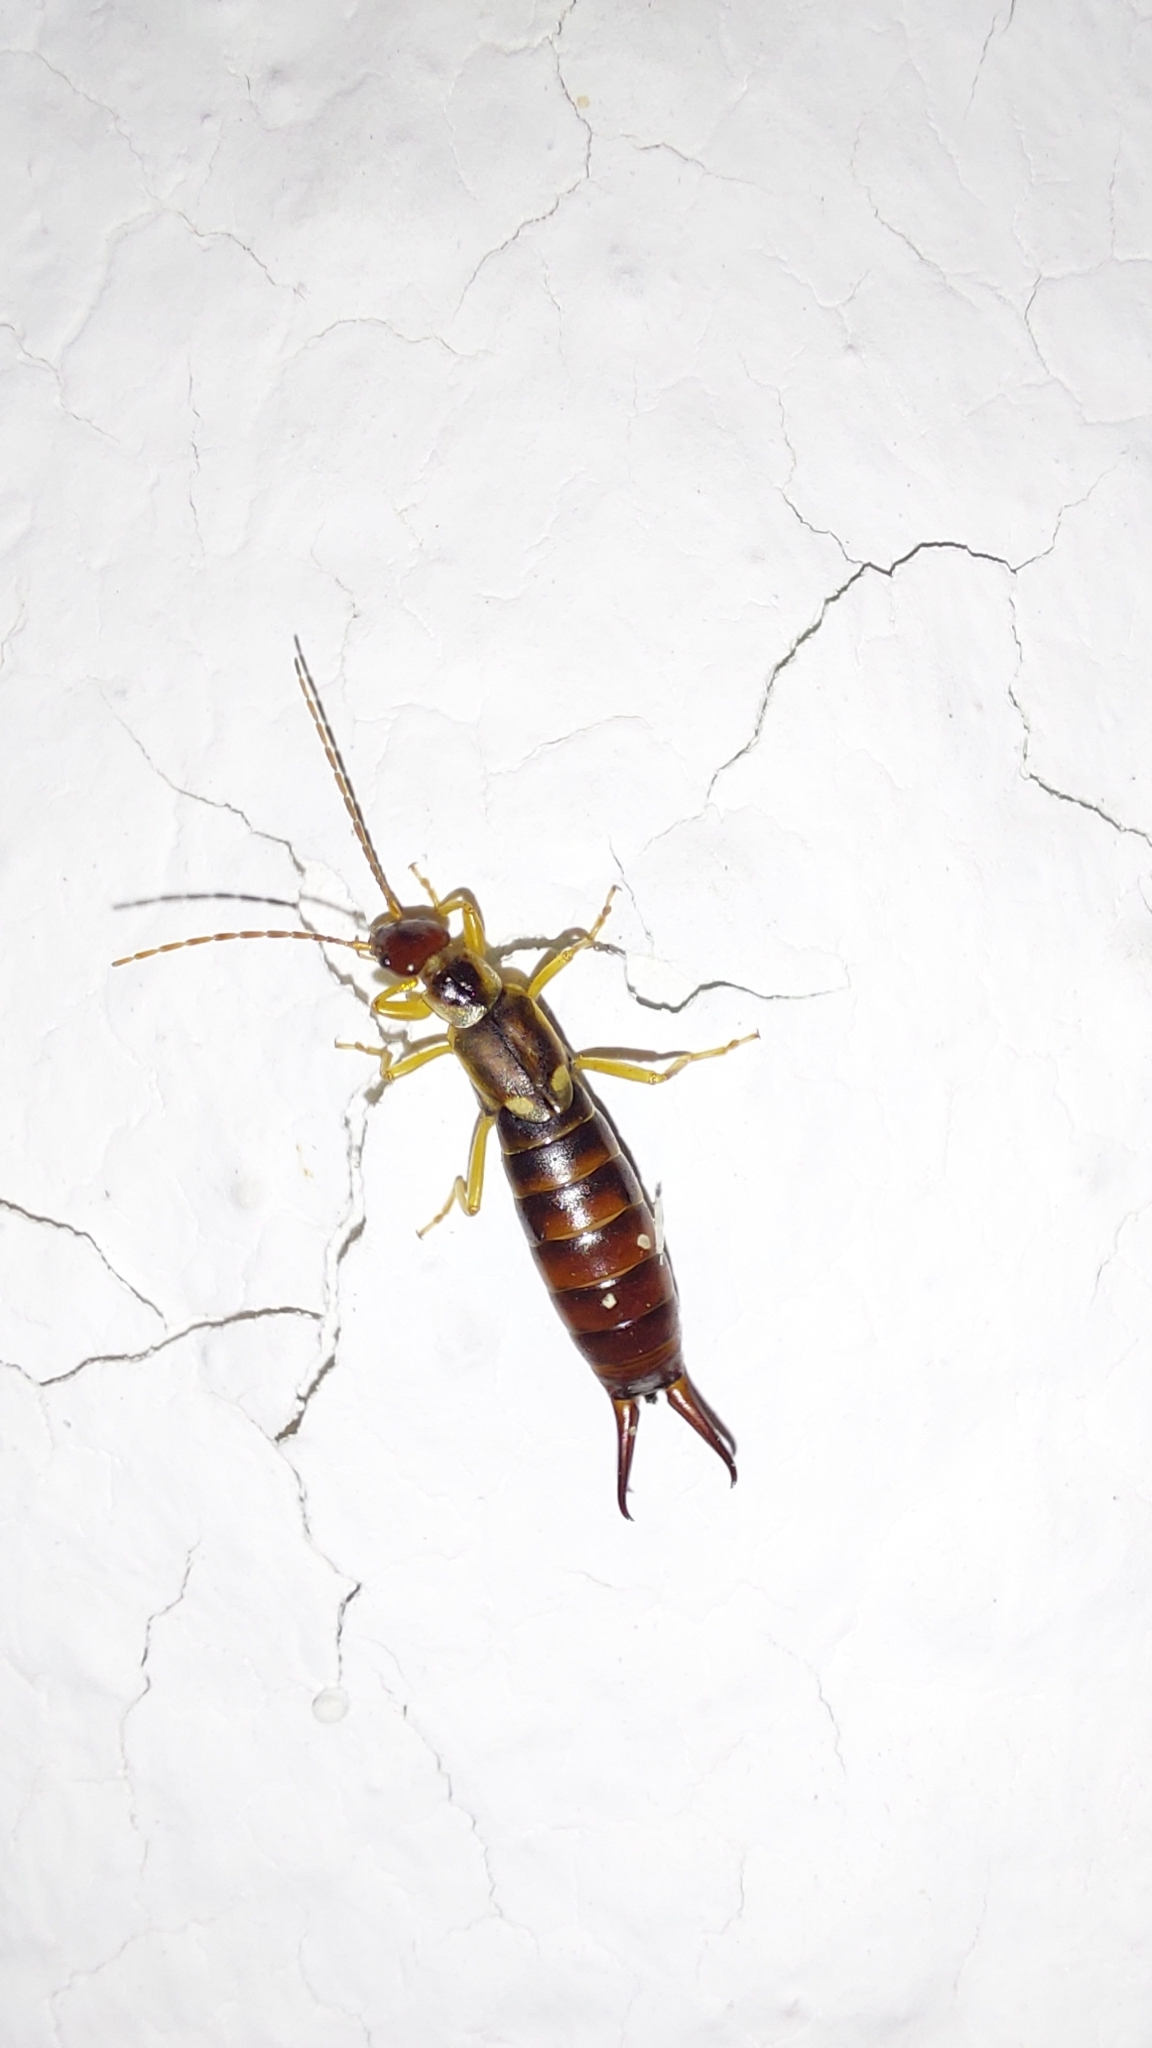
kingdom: Animalia
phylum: Arthropoda
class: Insecta
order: Dermaptera
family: Forficulidae
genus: Forficula
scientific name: Forficula
